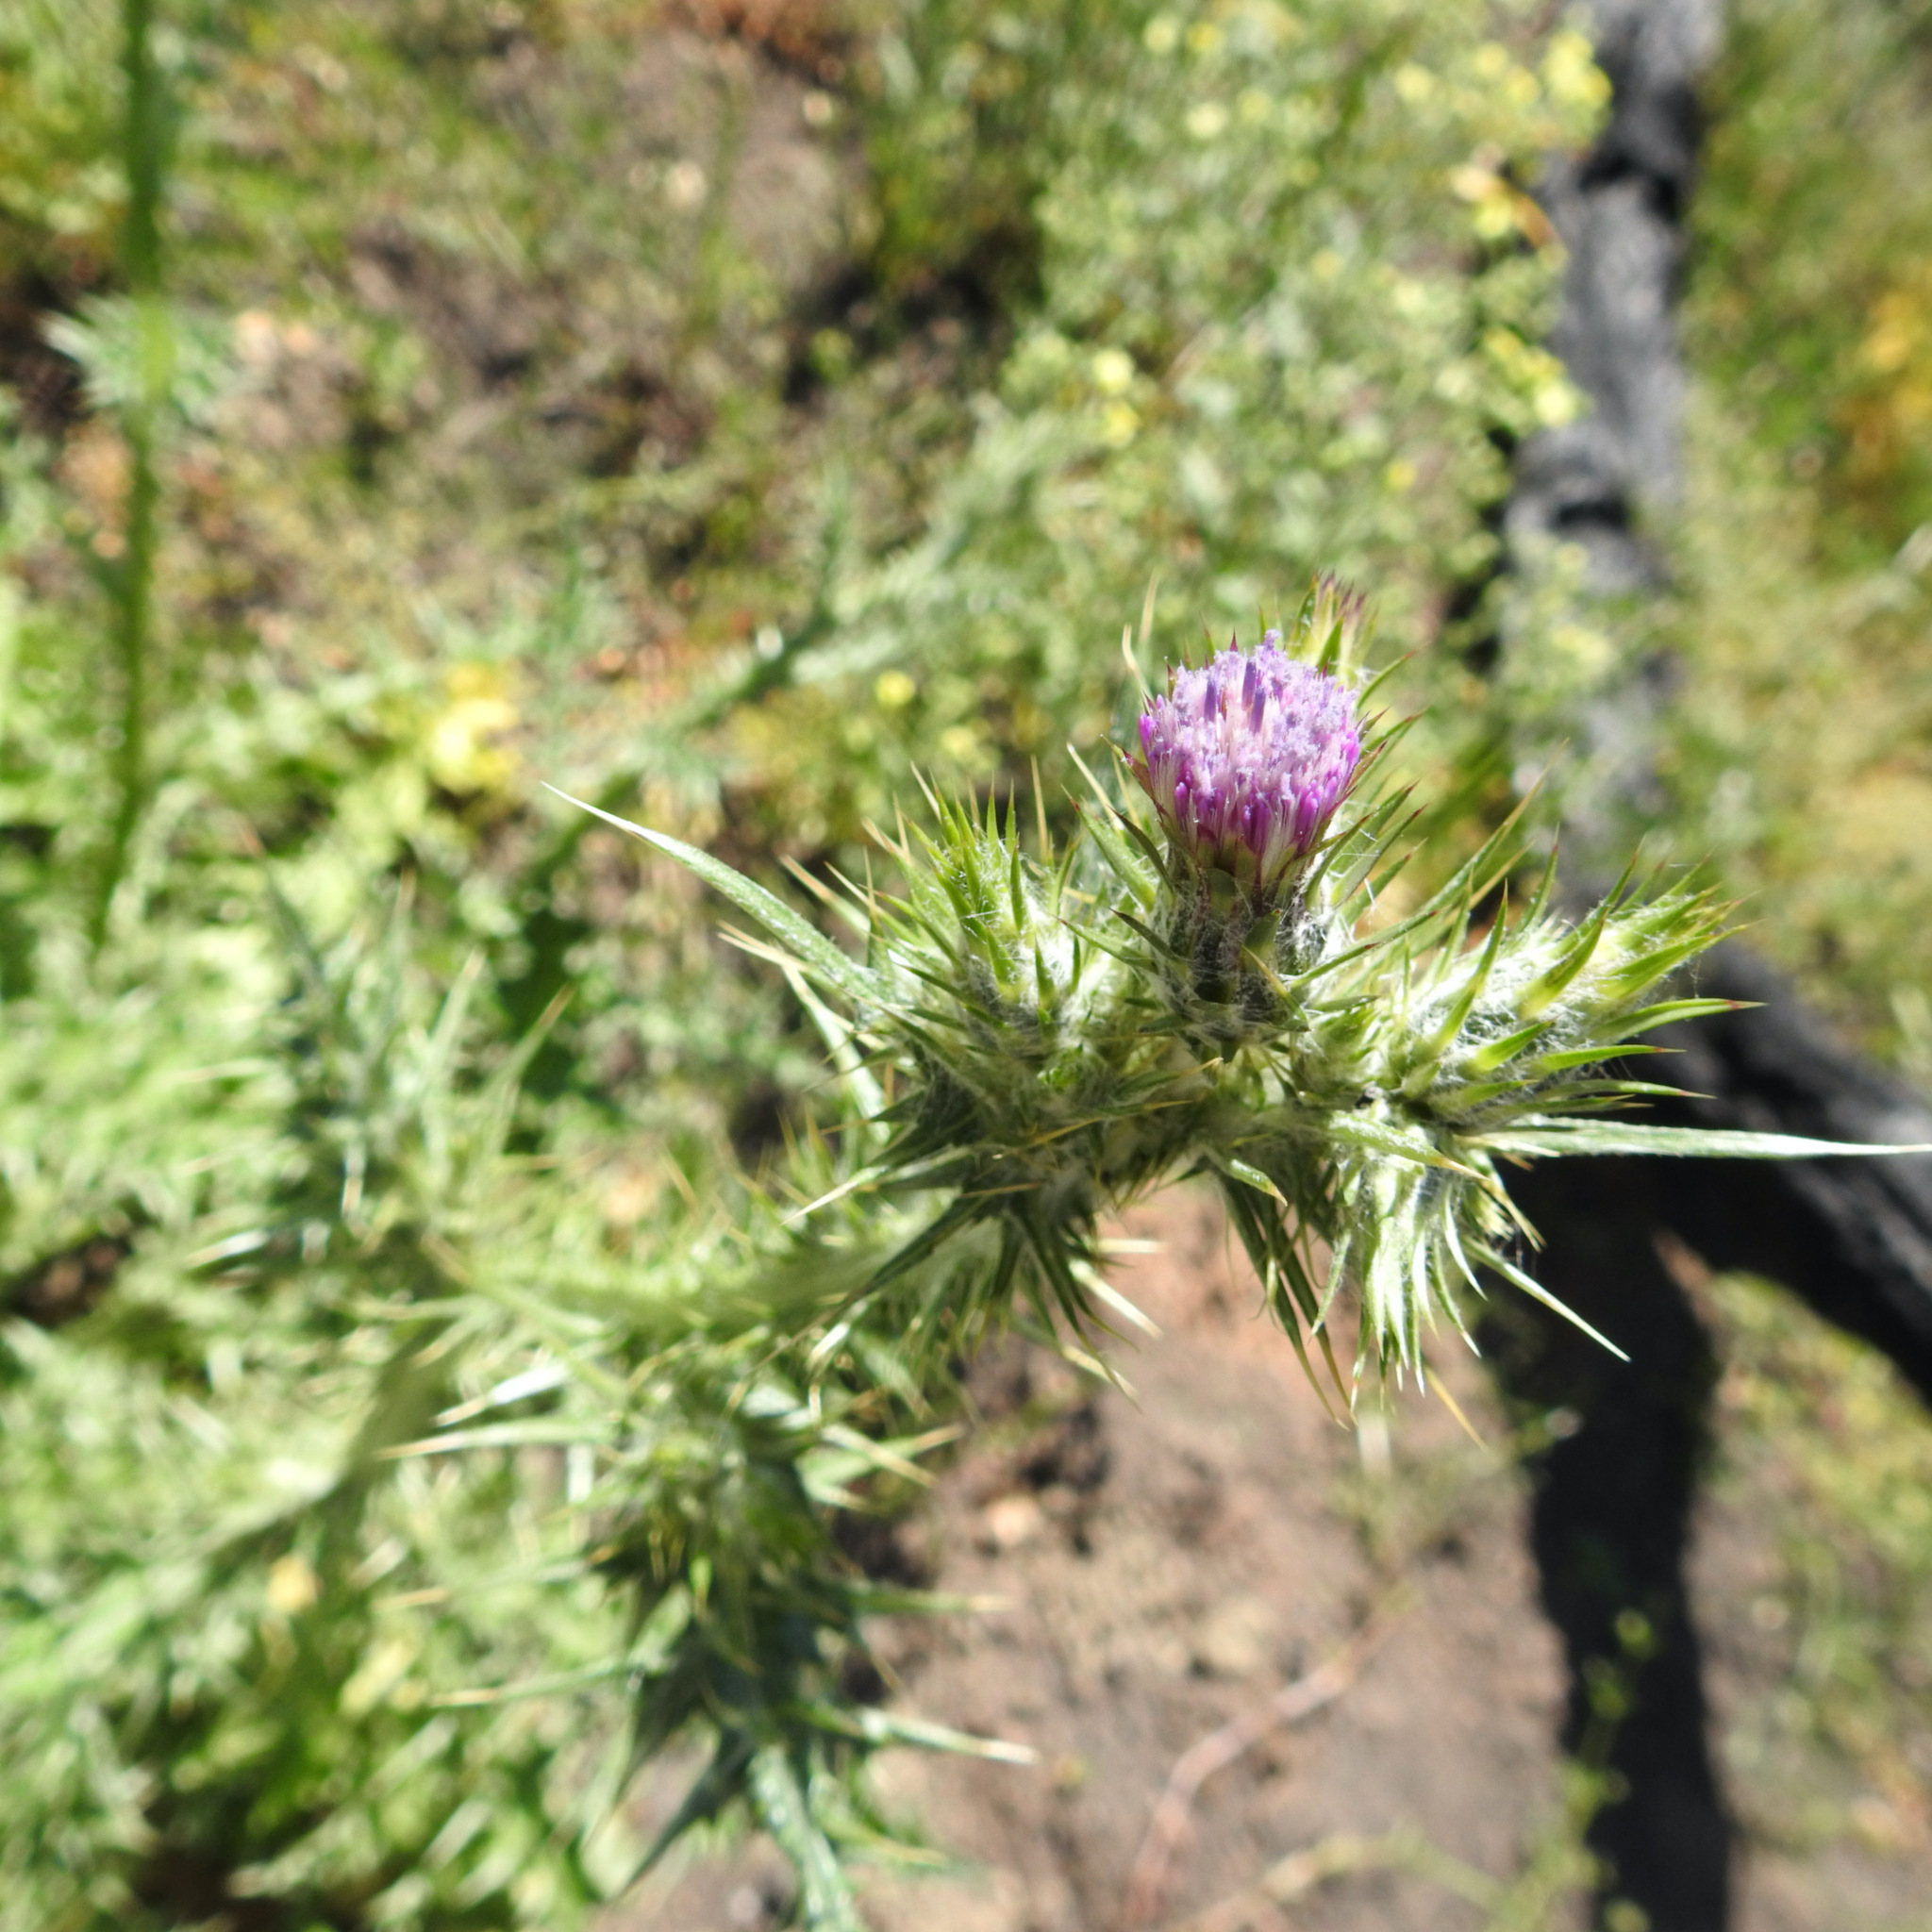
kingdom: Plantae
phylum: Tracheophyta
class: Magnoliopsida
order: Asterales
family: Asteraceae
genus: Carduus
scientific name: Carduus pycnocephalus
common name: Plymouth thistle
